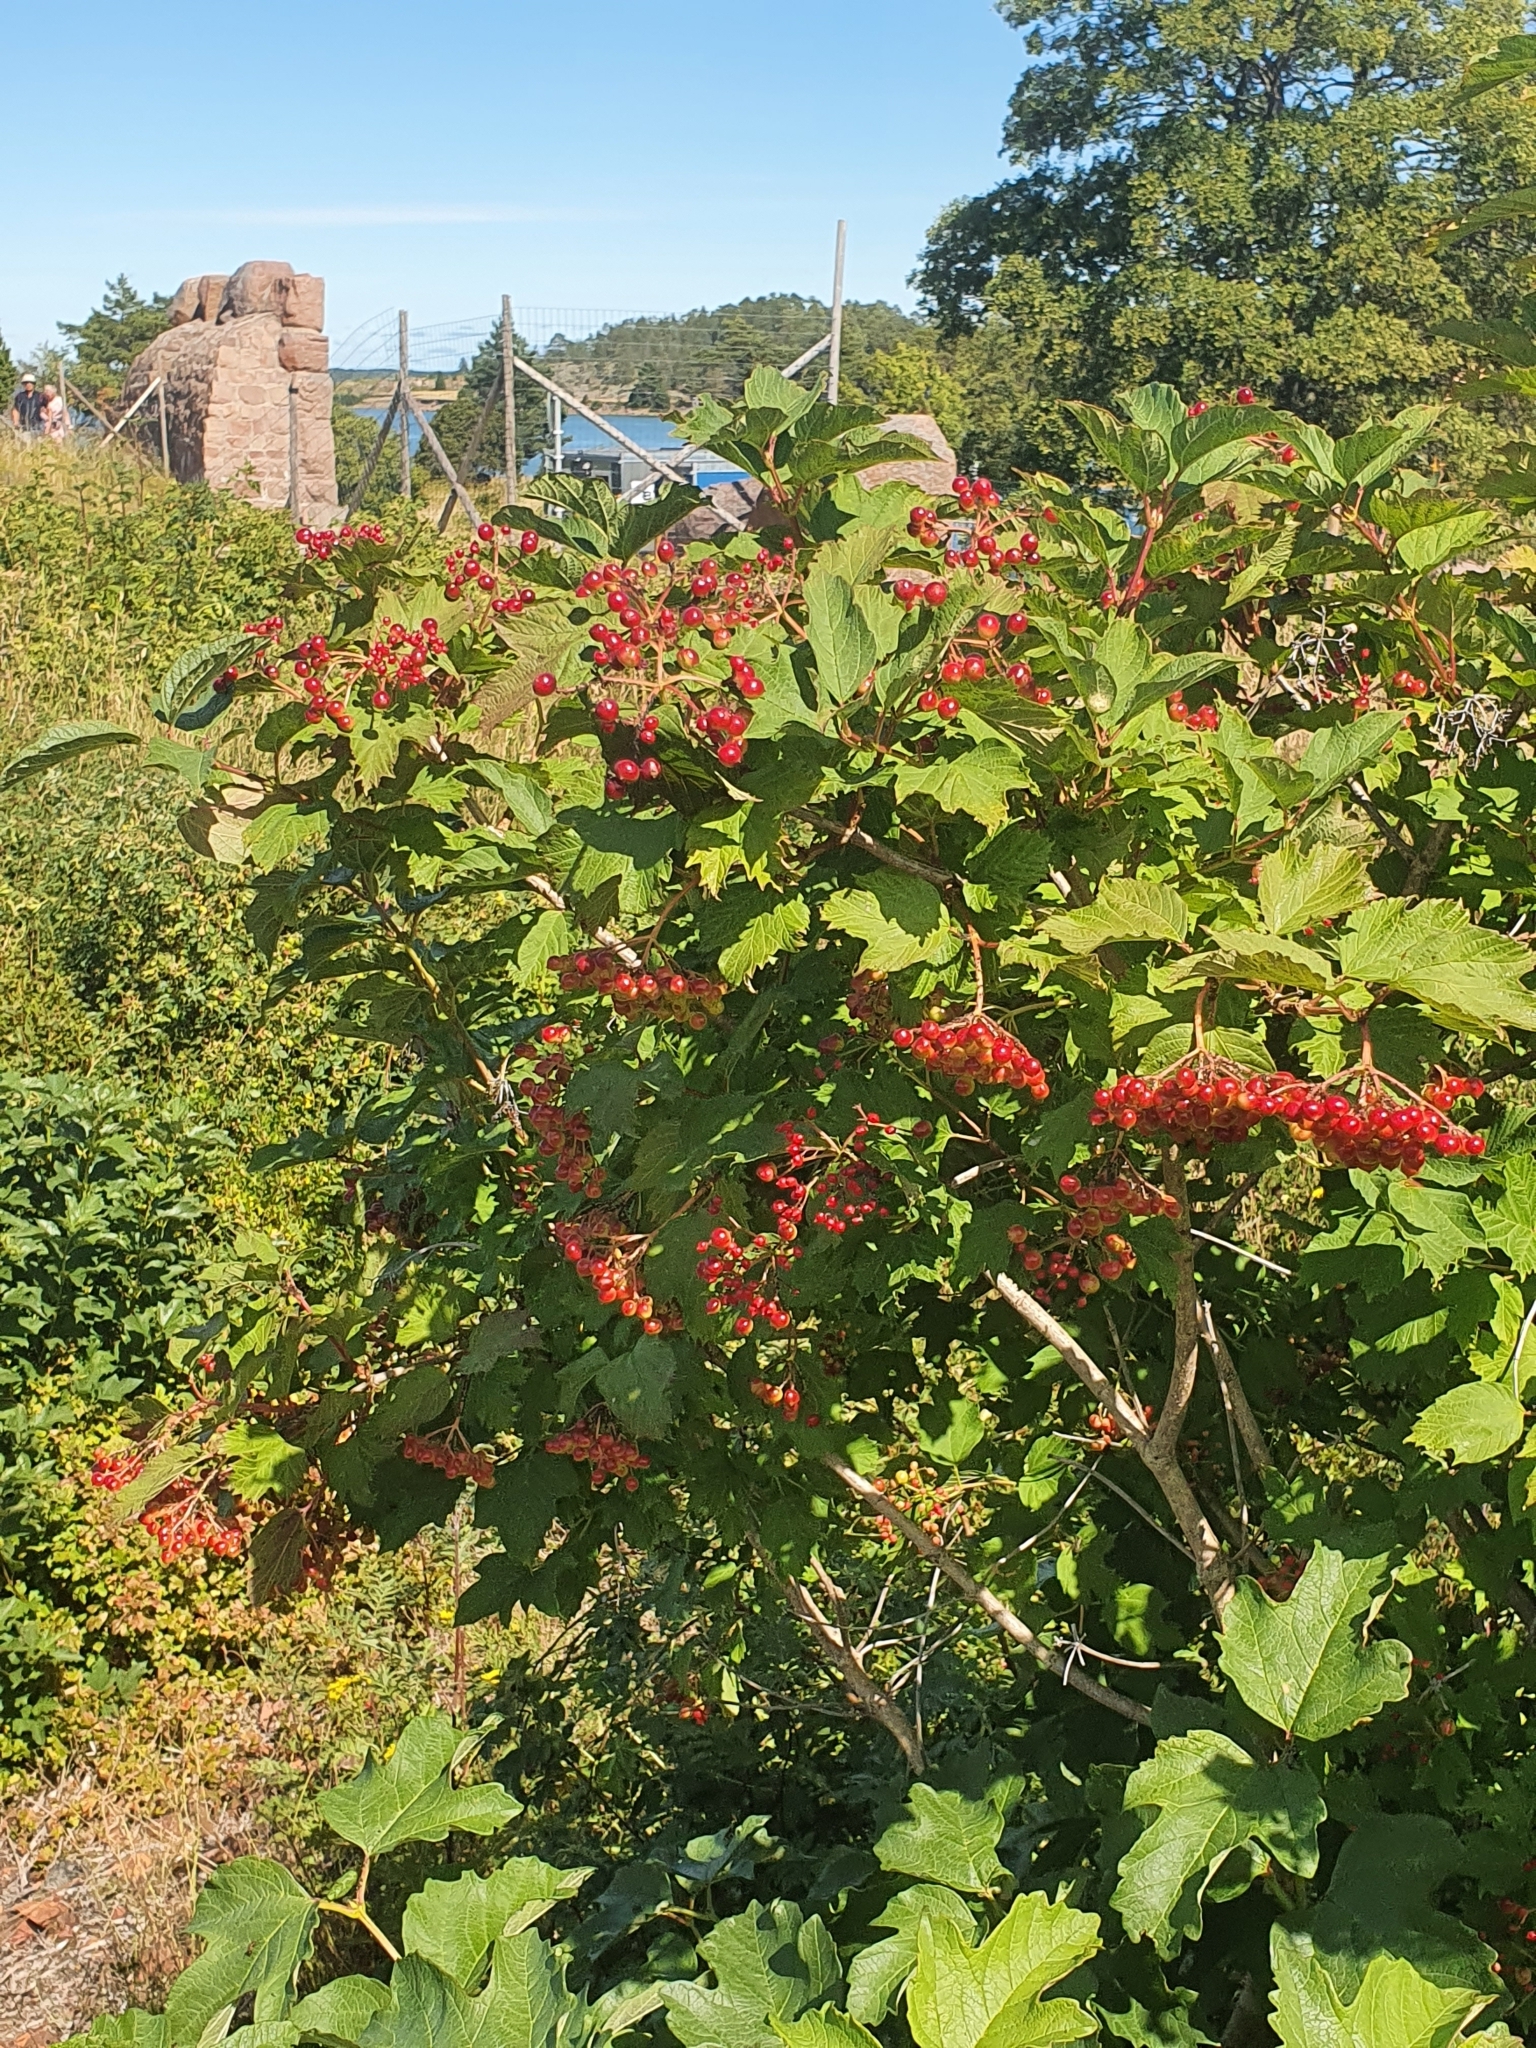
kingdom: Plantae
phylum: Tracheophyta
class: Magnoliopsida
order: Dipsacales
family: Viburnaceae
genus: Viburnum
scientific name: Viburnum opulus
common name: Guelder-rose
